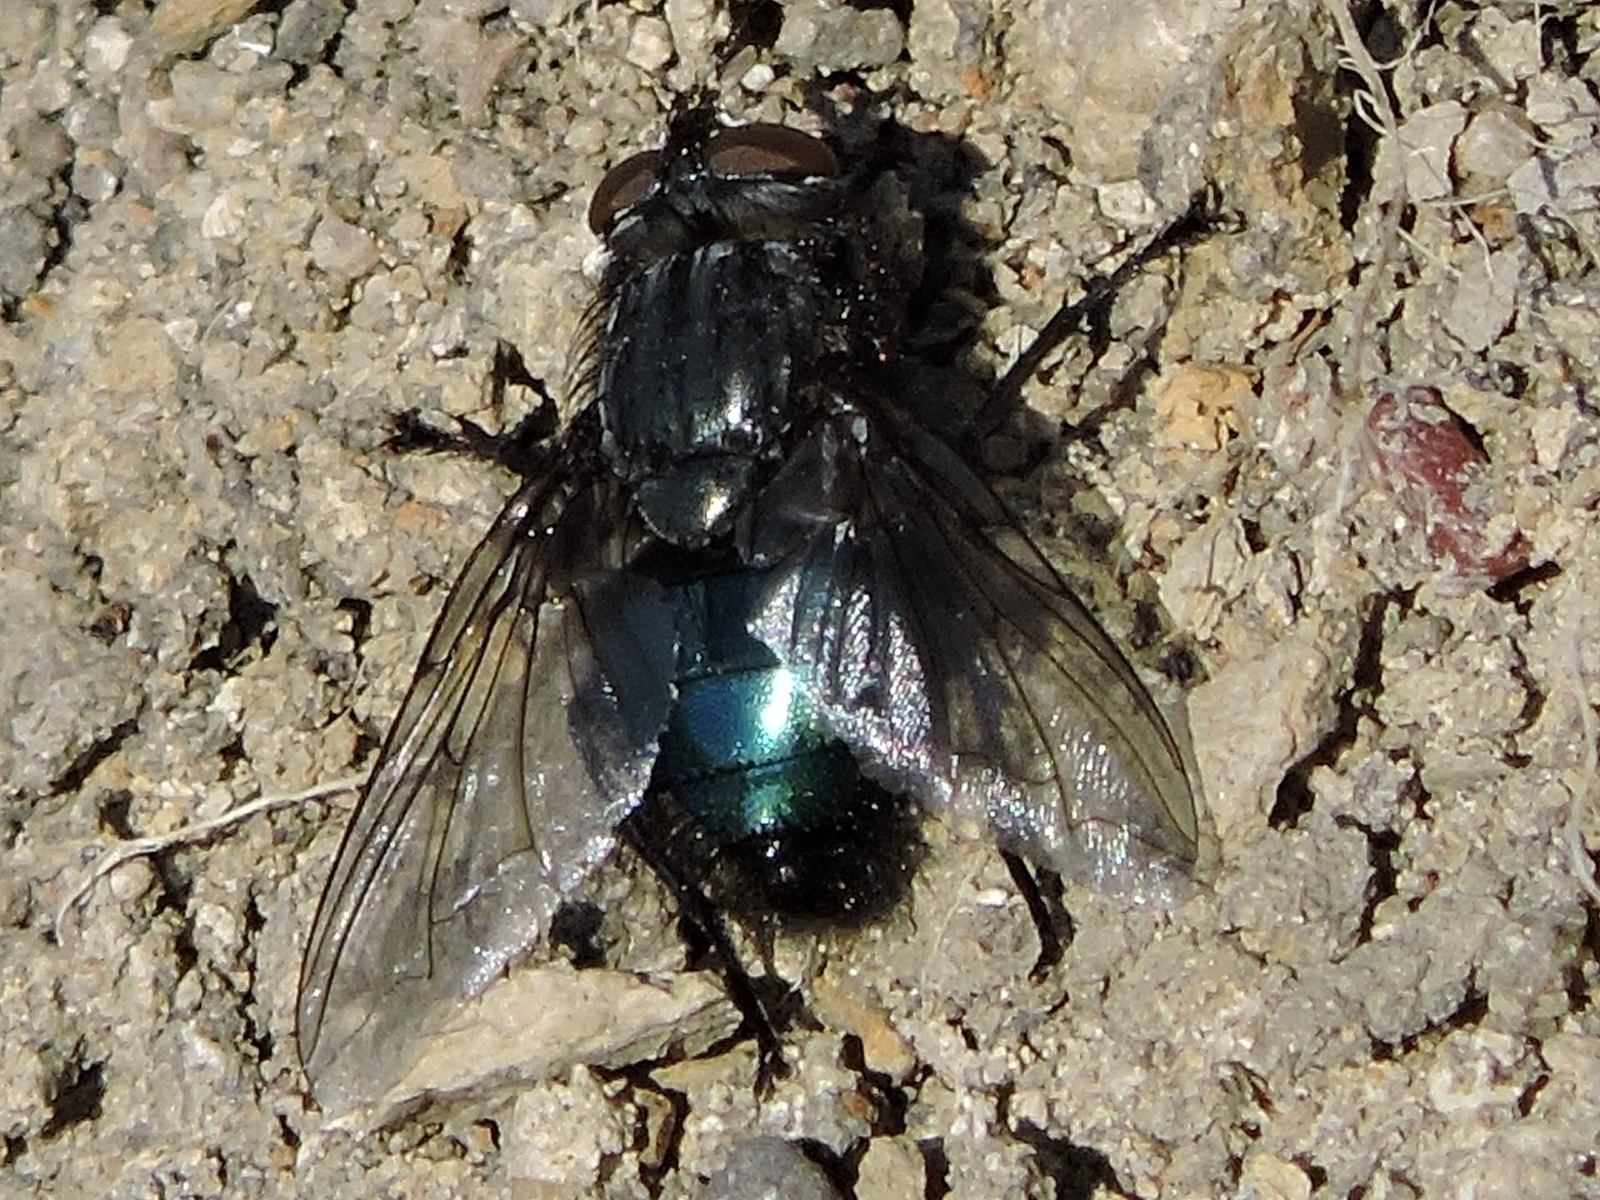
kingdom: Animalia
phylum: Arthropoda
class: Insecta
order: Diptera
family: Calliphoridae
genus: Cynomya
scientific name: Cynomya cadaverina
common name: Shiny blue bottle fly
